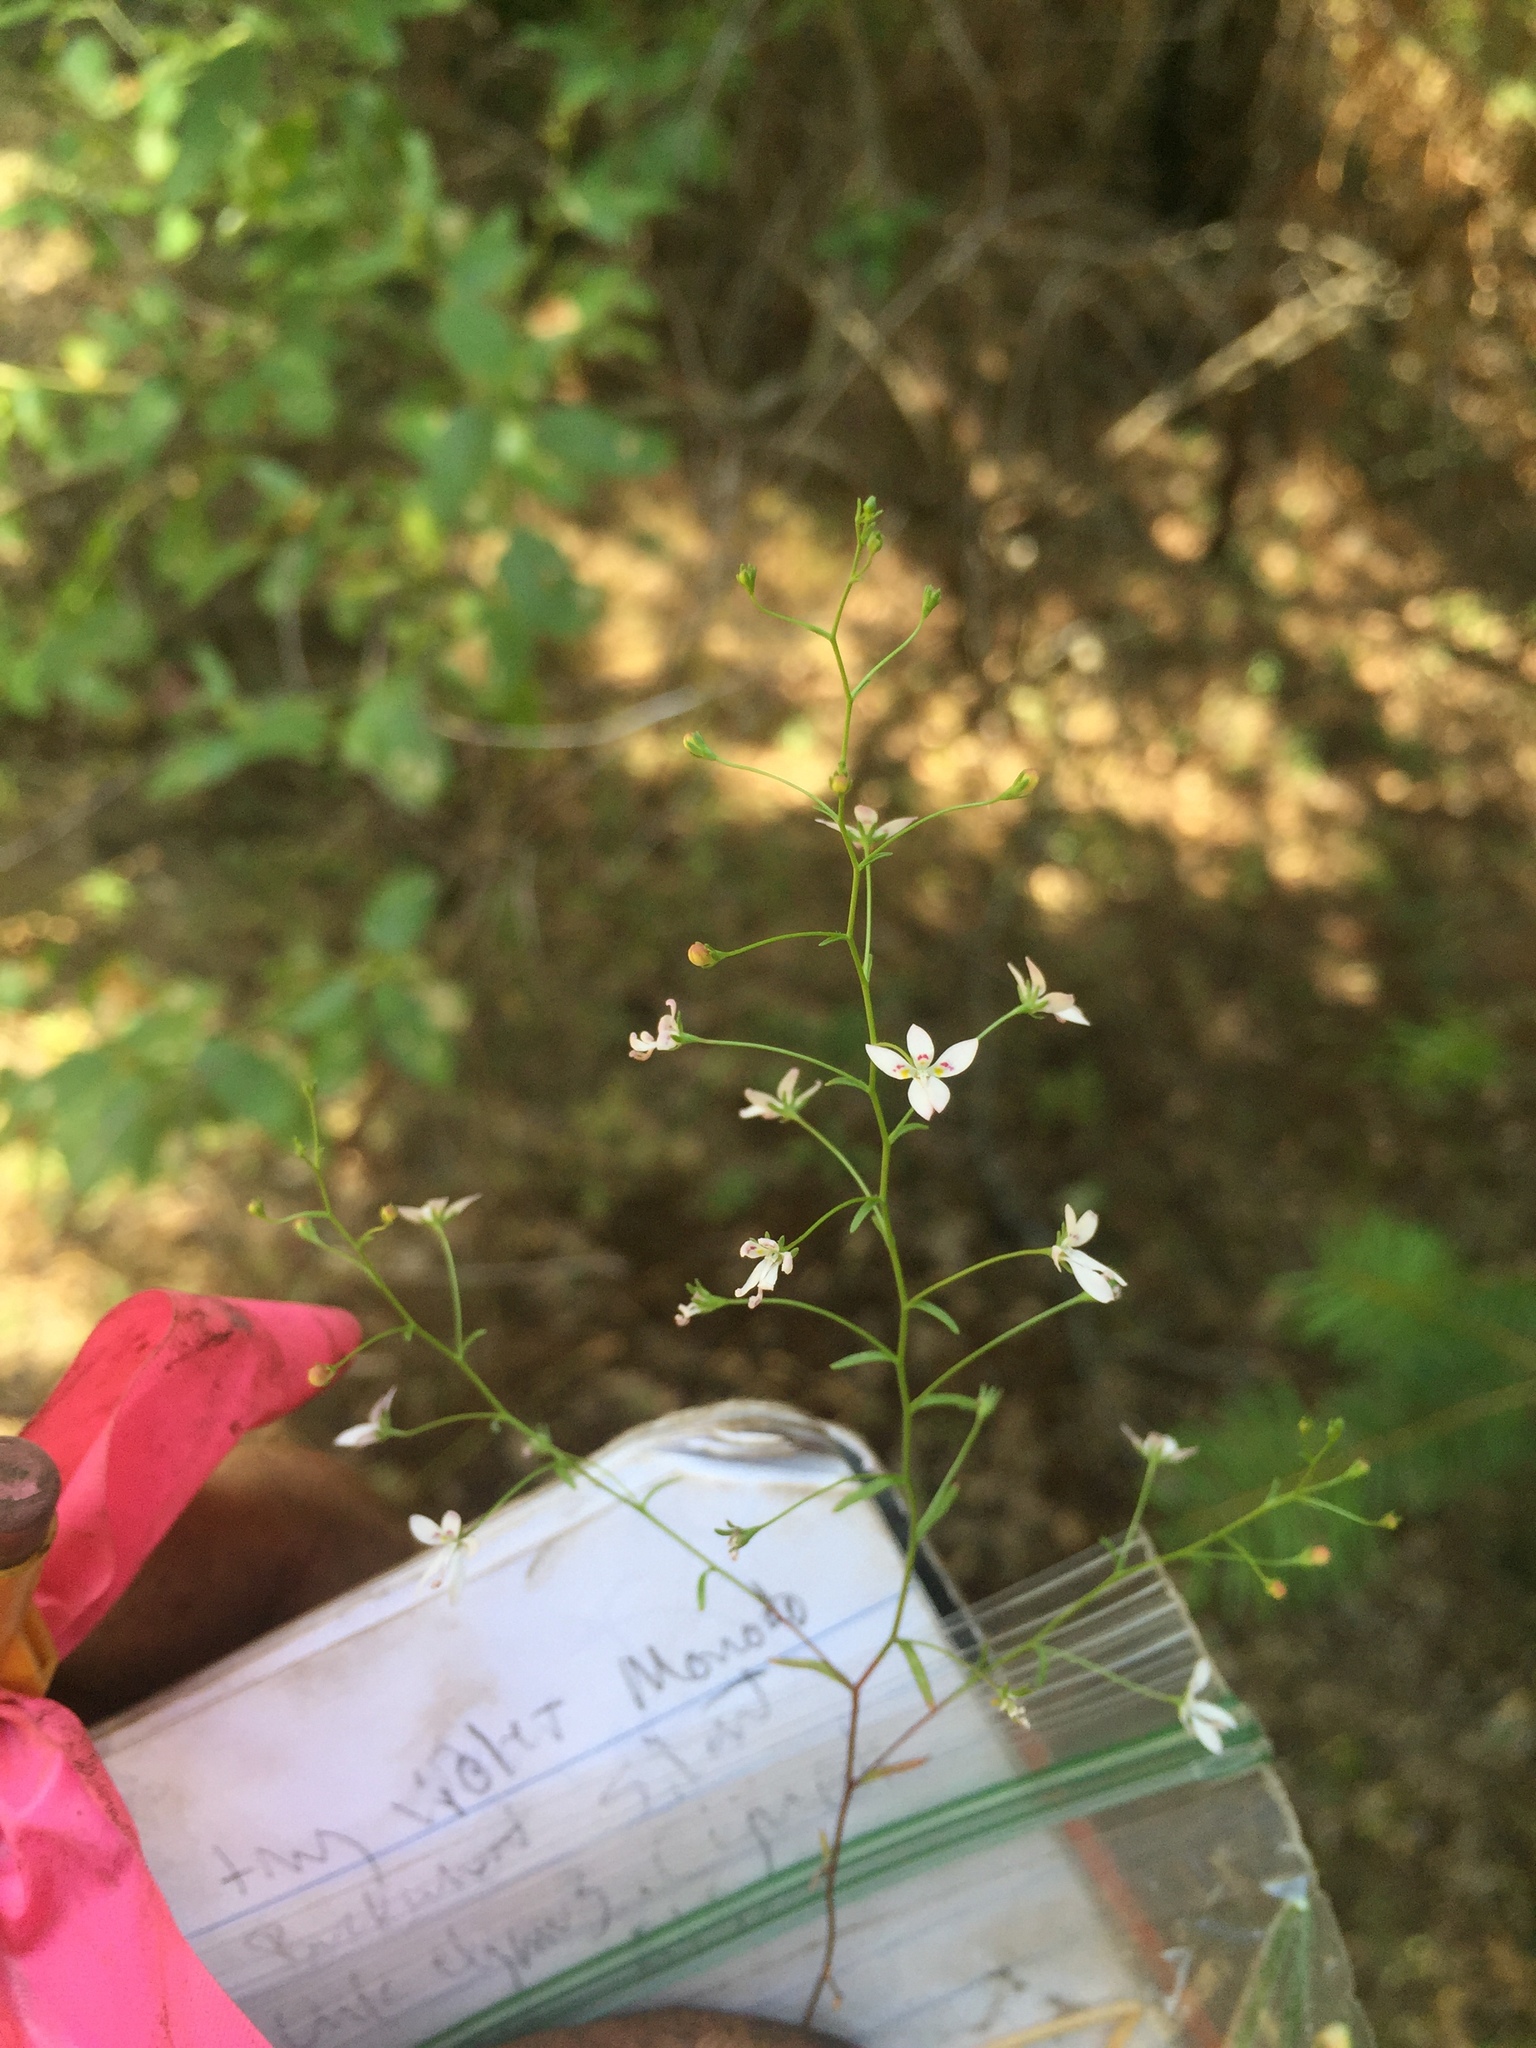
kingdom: Plantae
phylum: Tracheophyta
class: Magnoliopsida
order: Asterales
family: Campanulaceae
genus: Nemacladus
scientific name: Nemacladus interior
